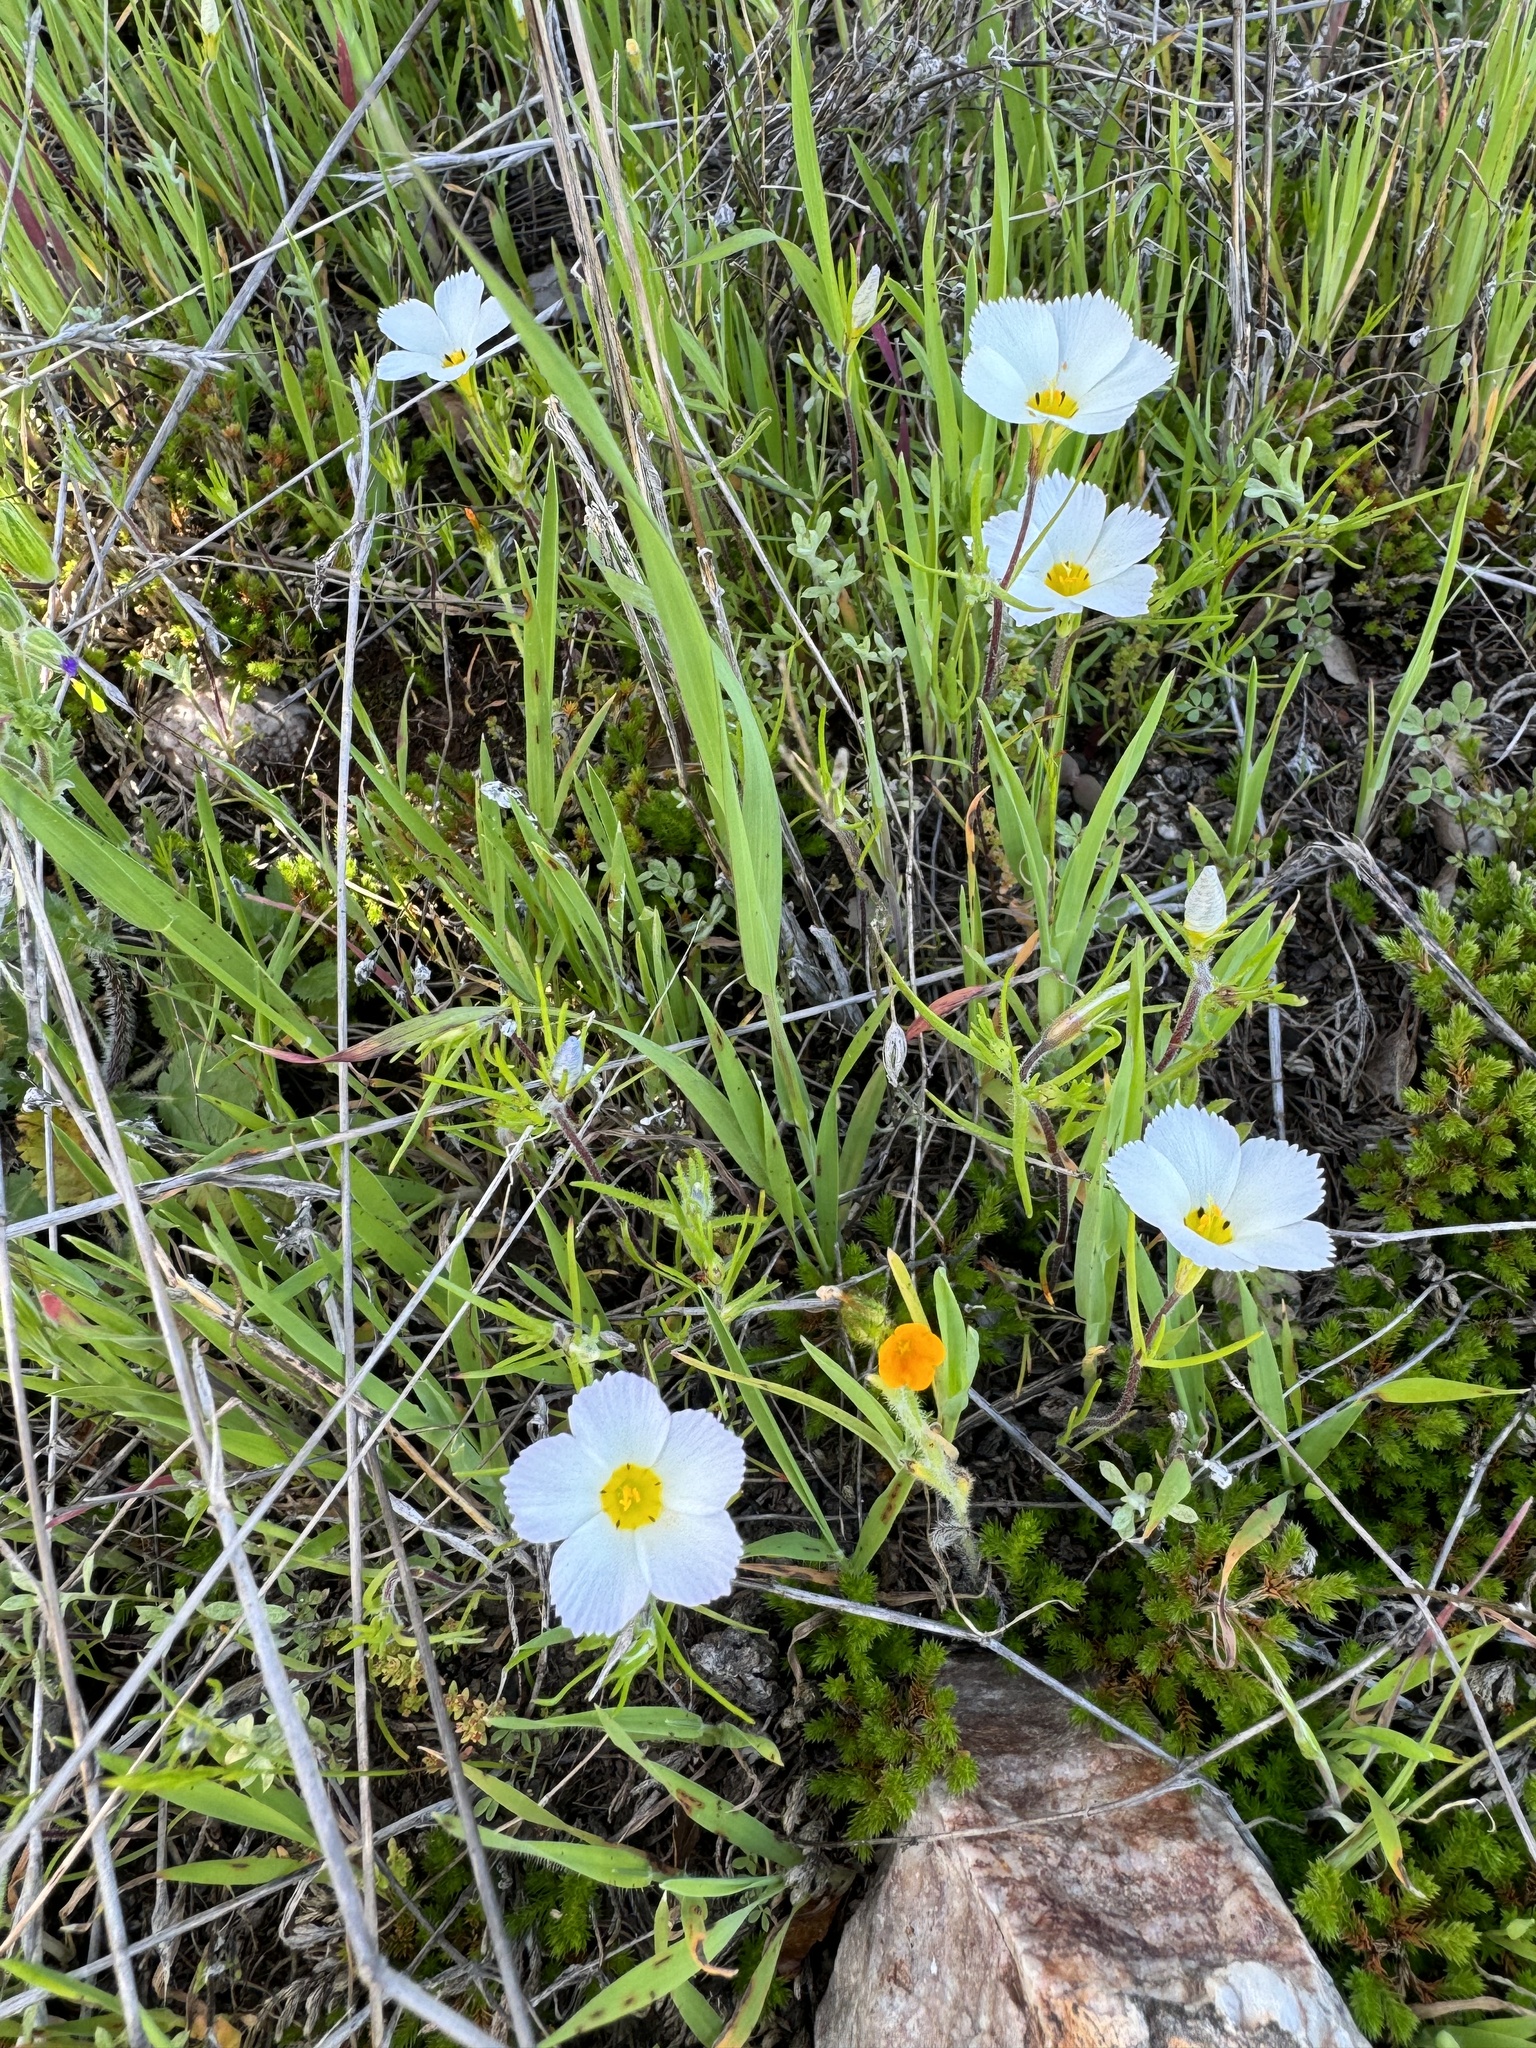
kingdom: Plantae
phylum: Tracheophyta
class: Magnoliopsida
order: Ericales
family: Polemoniaceae
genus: Linanthus
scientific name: Linanthus dianthiflorus
